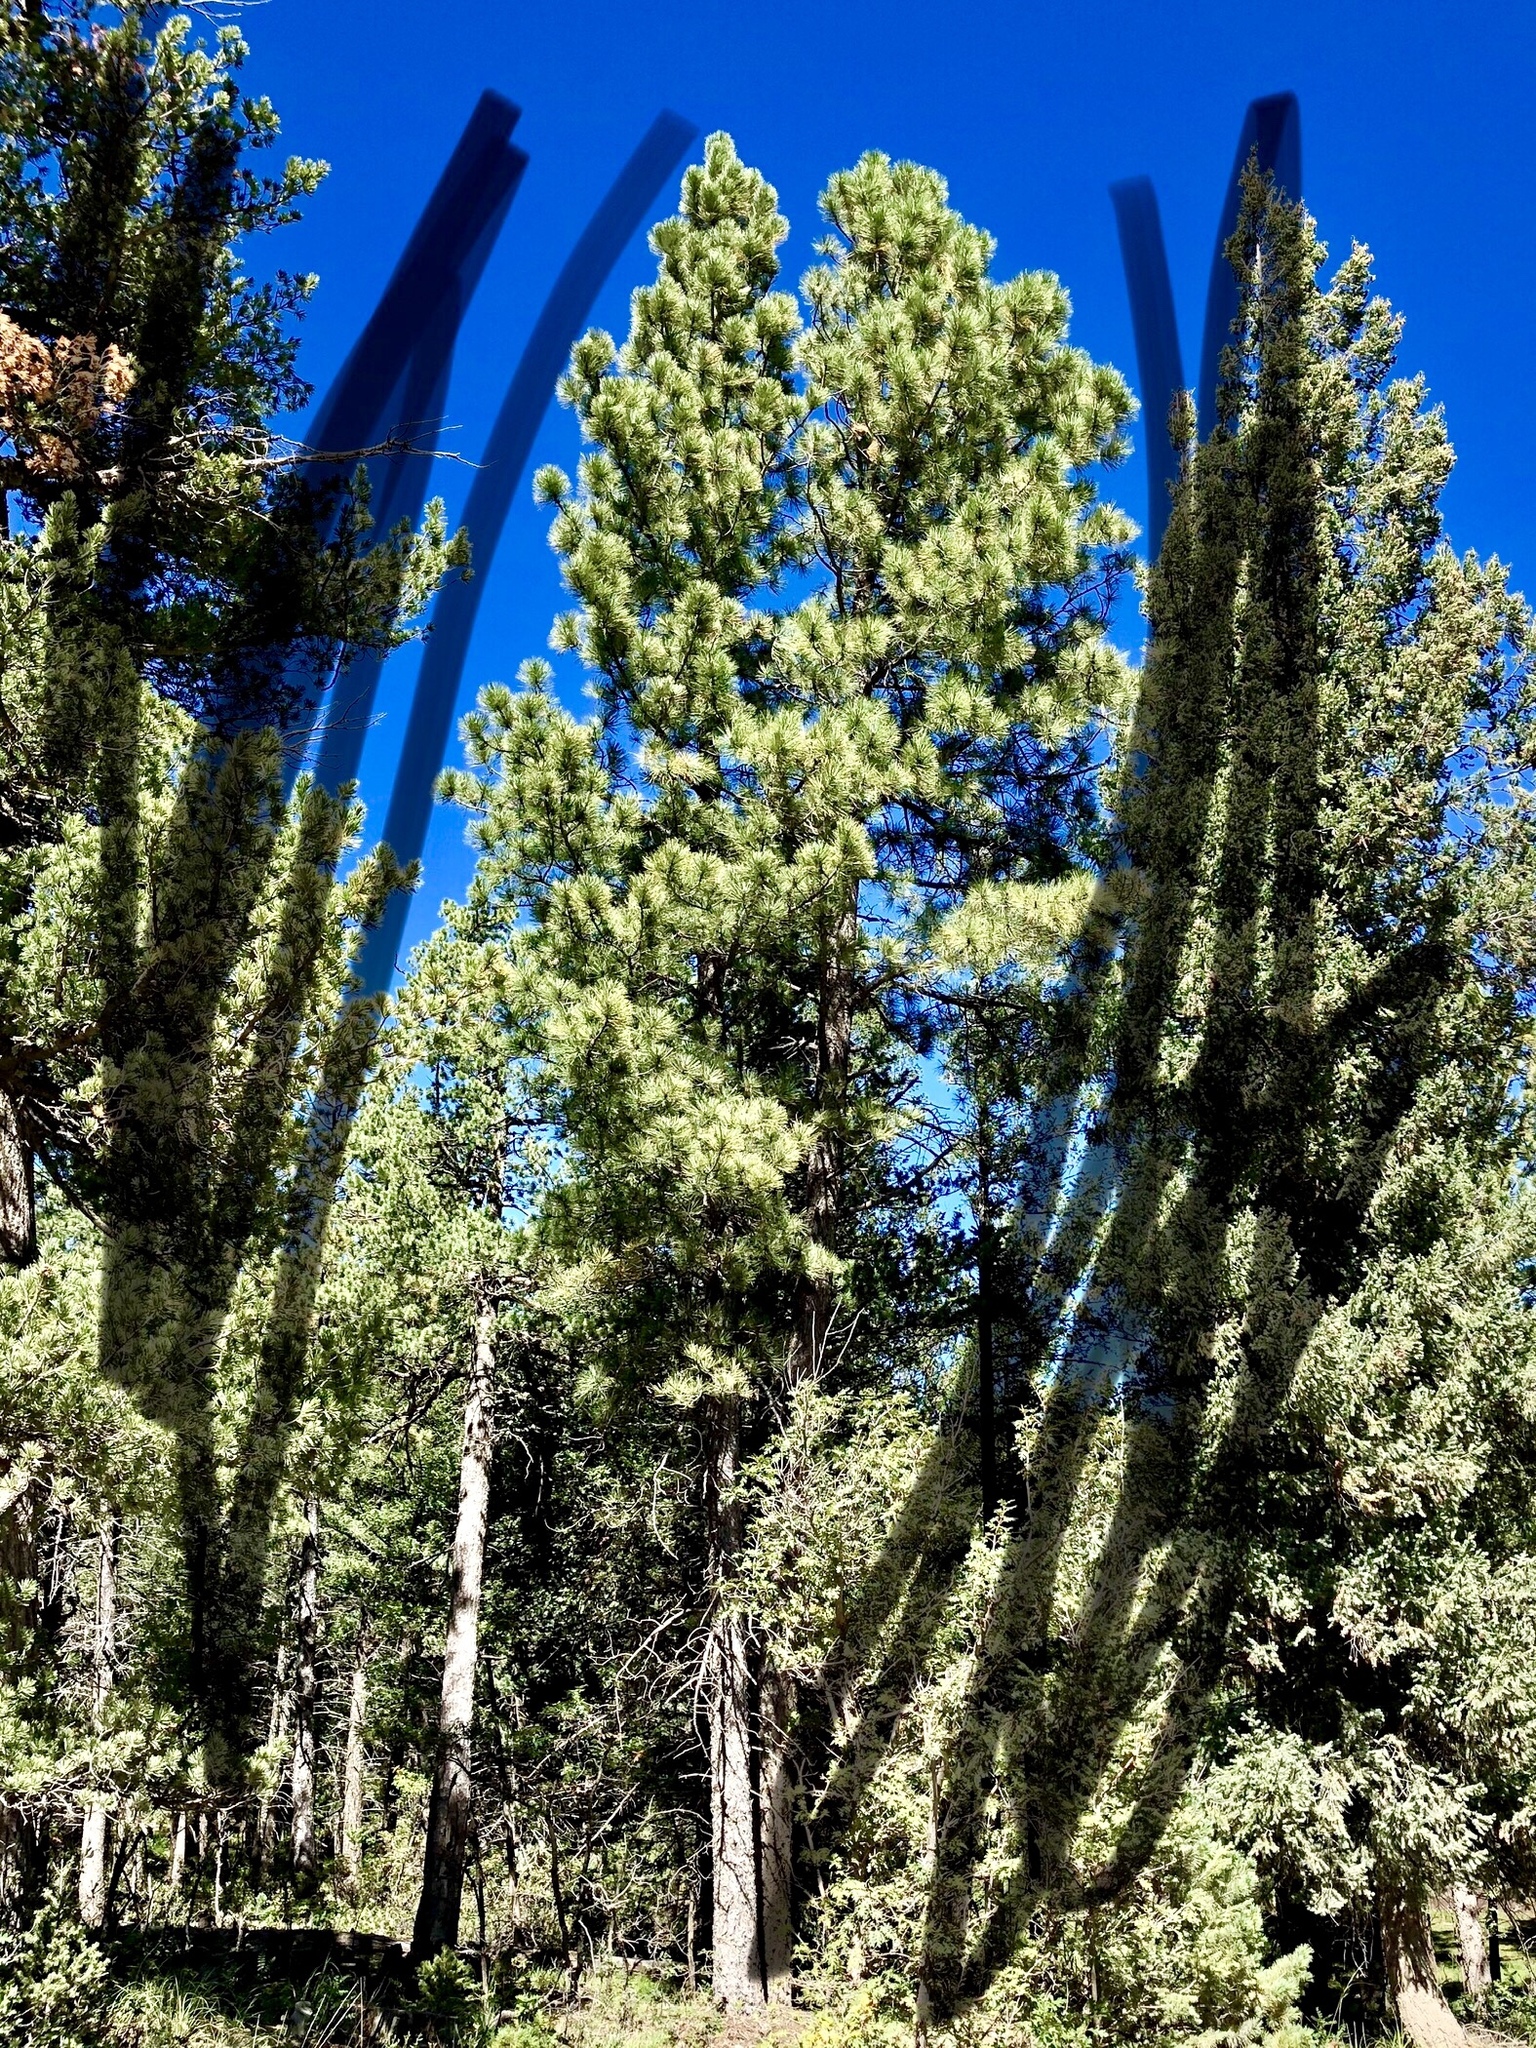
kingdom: Plantae
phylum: Tracheophyta
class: Pinopsida
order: Pinales
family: Pinaceae
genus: Pinus
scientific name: Pinus ponderosa
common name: Western yellow-pine
